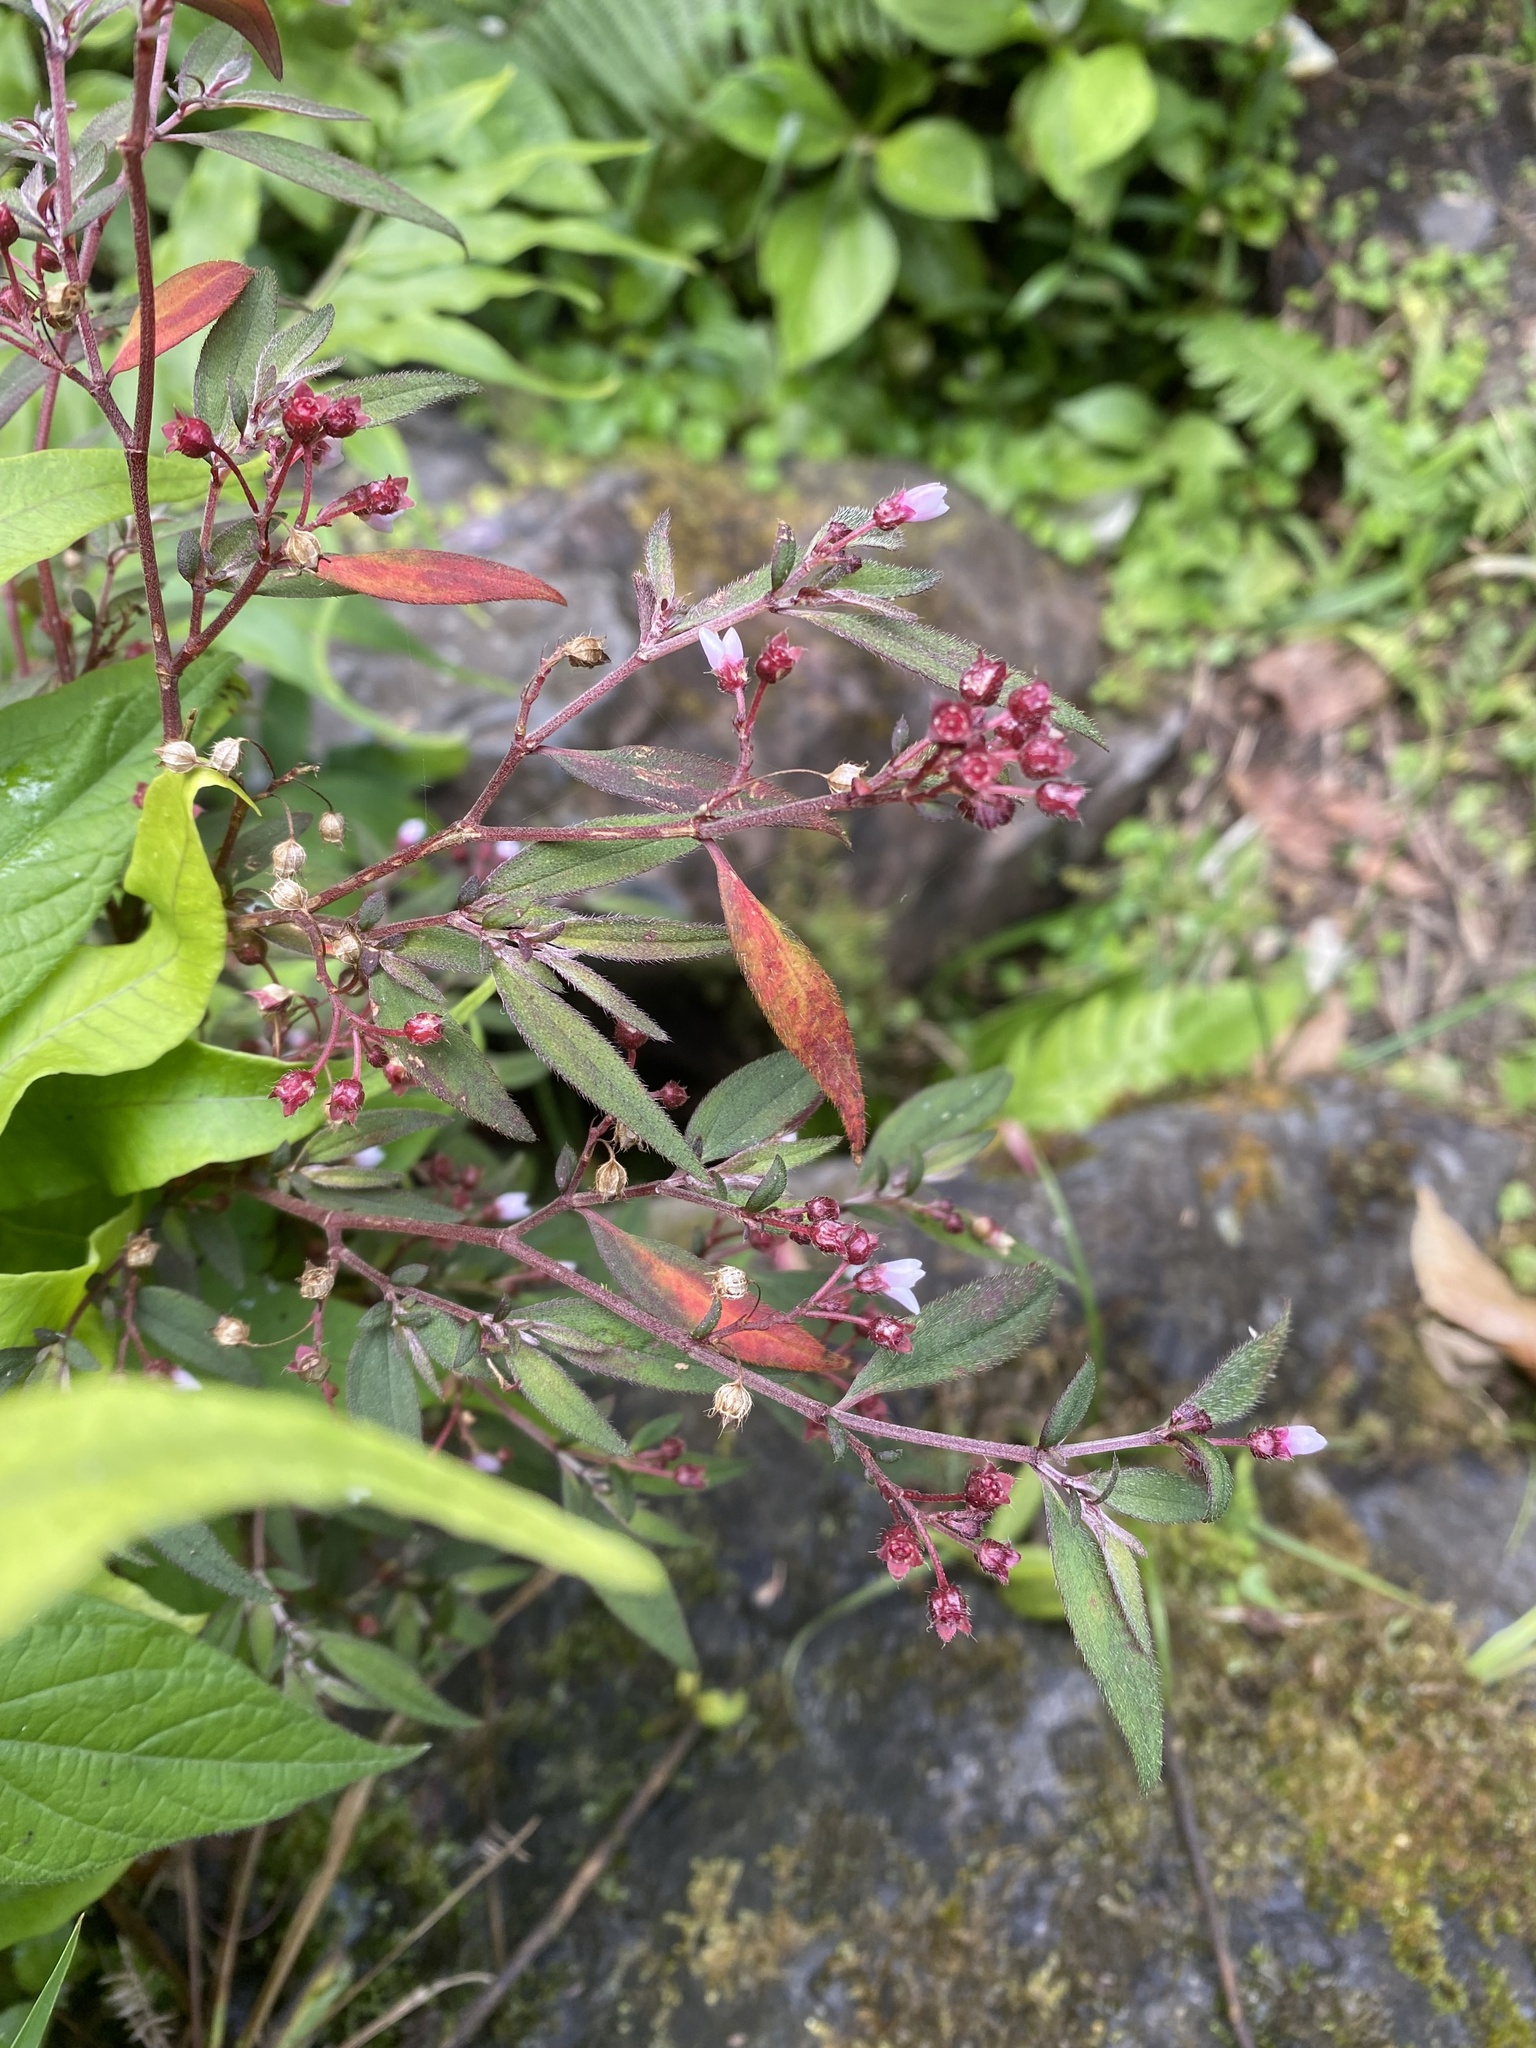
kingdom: Plantae
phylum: Tracheophyta
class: Magnoliopsida
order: Myrtales
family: Melastomataceae
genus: Centradenia
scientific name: Centradenia inaequilateralis
